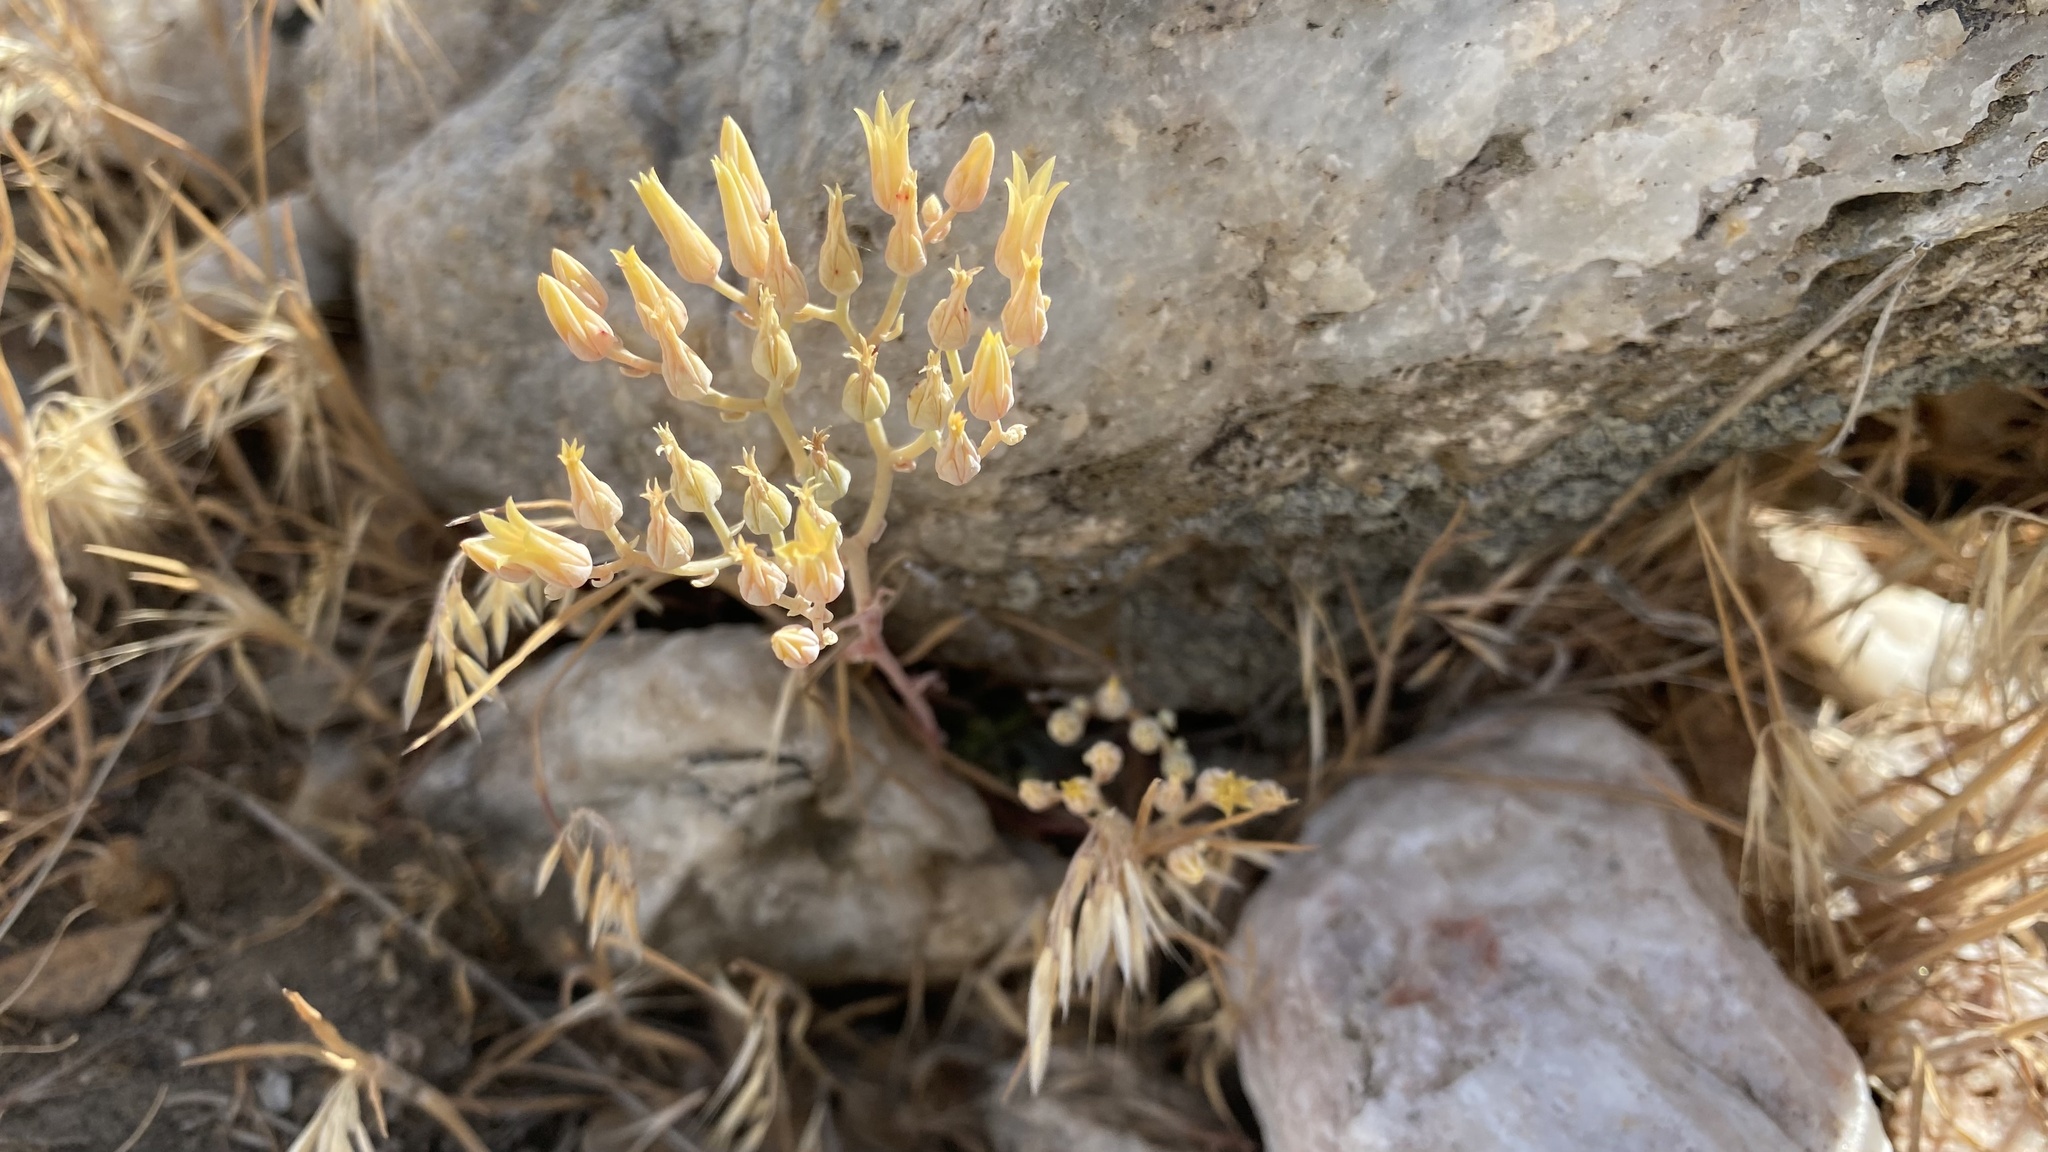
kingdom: Plantae
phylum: Tracheophyta
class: Magnoliopsida
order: Saxifragales
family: Crassulaceae
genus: Dudleya
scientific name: Dudleya abramsii
